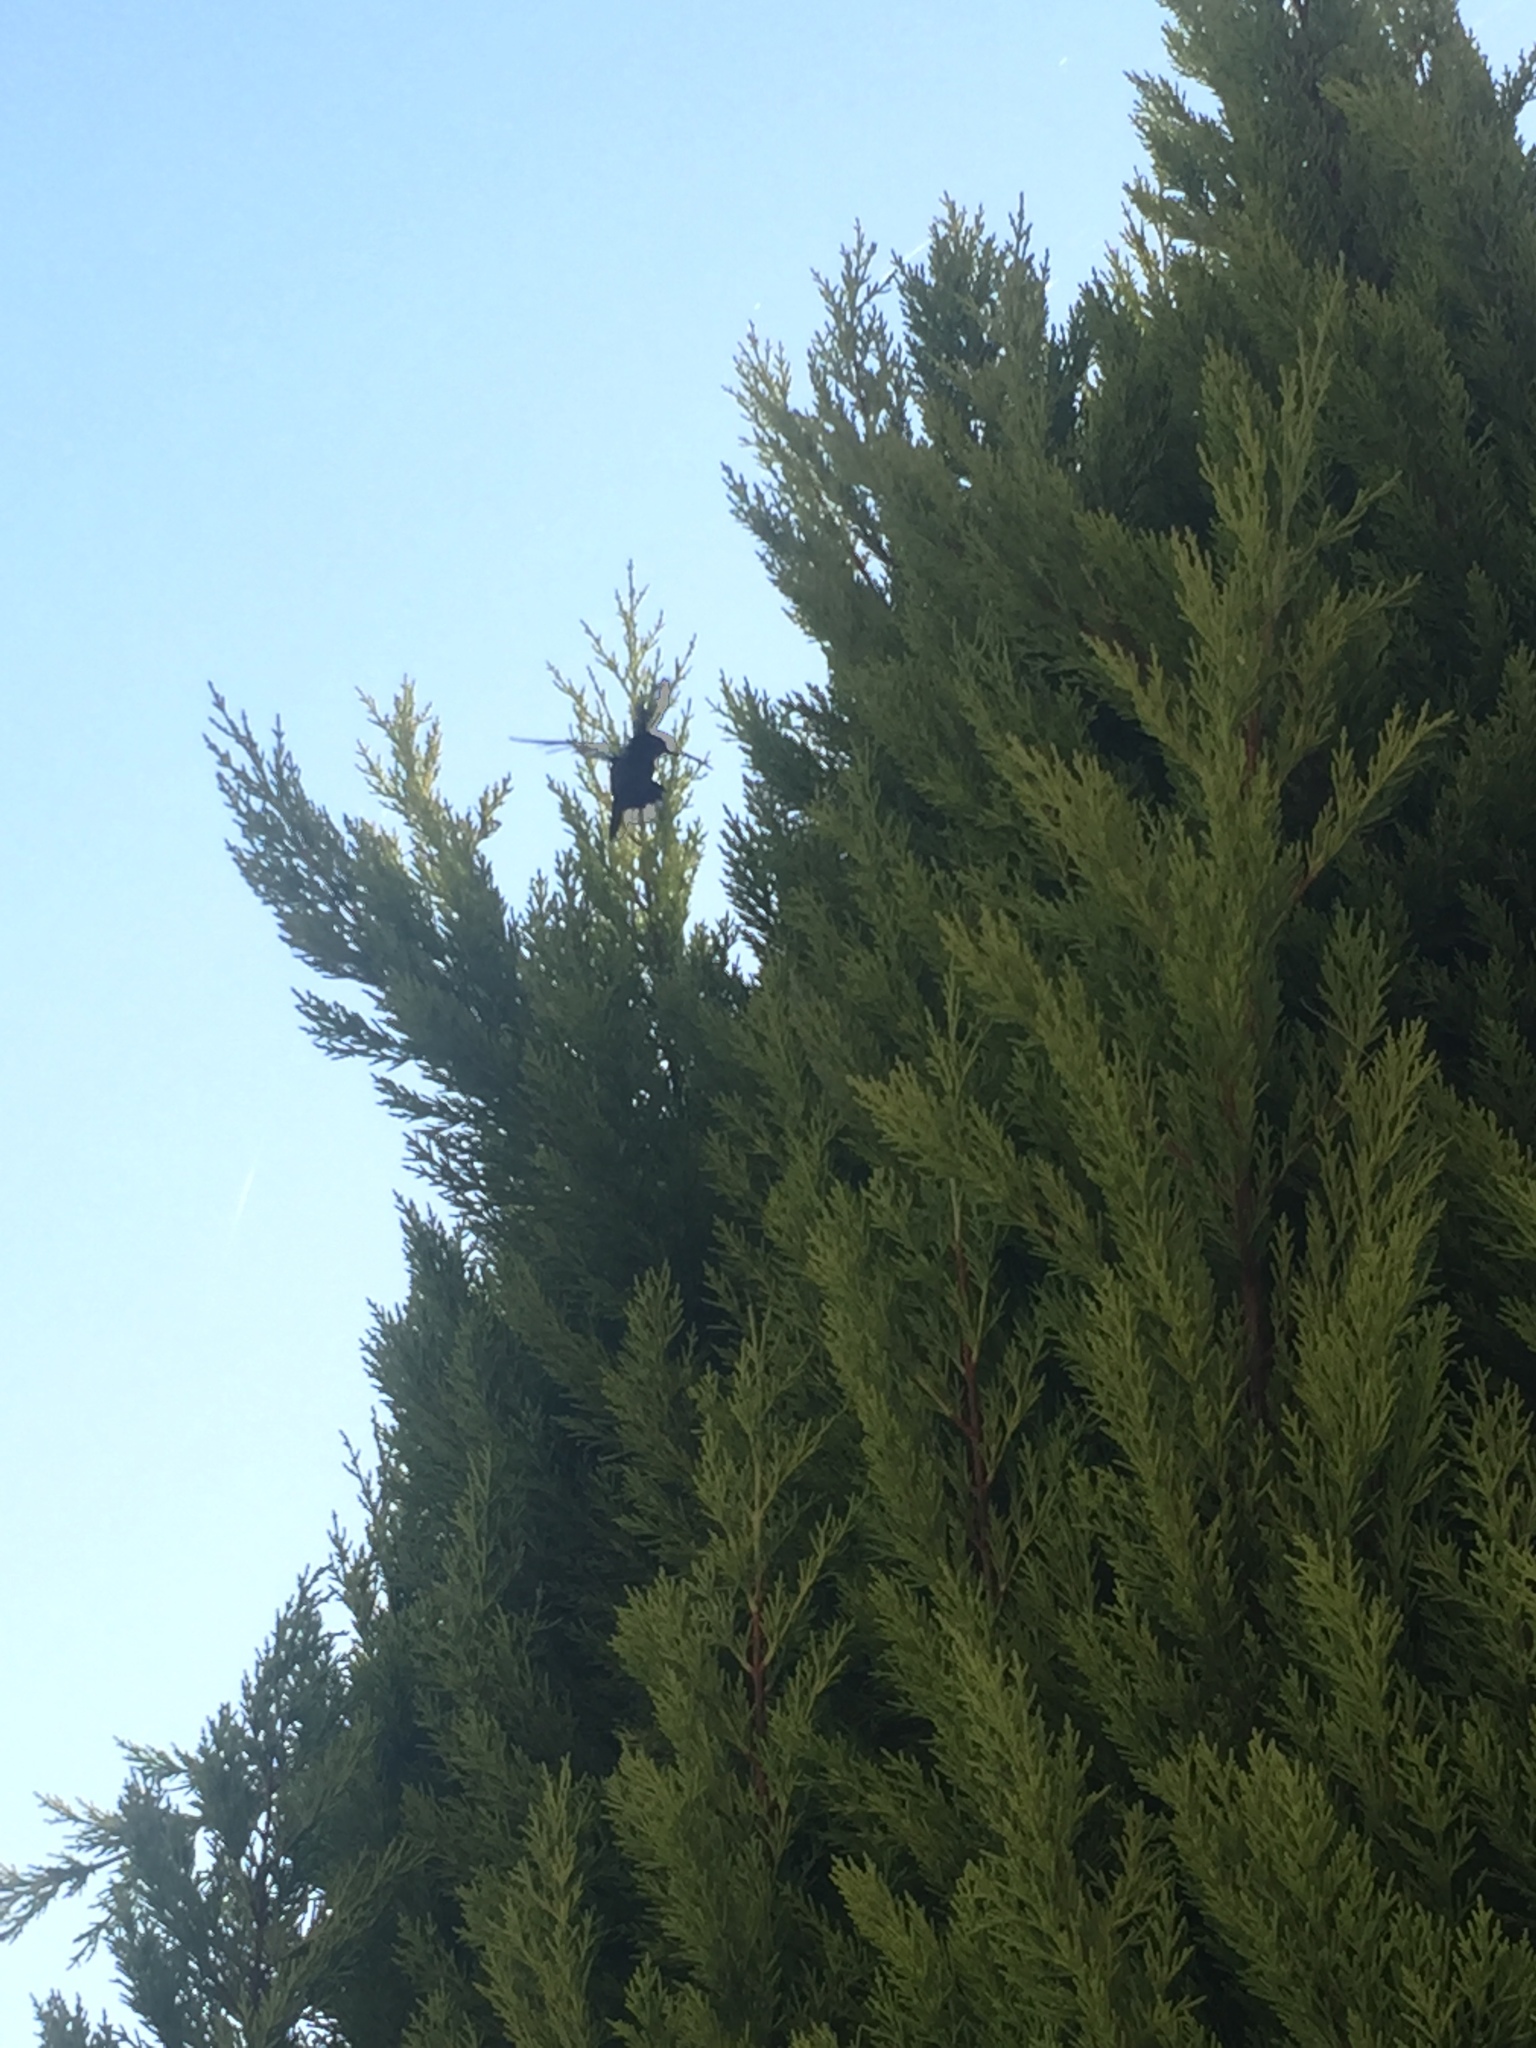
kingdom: Animalia
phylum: Chordata
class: Aves
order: Apodiformes
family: Trochilidae
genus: Cynanthus
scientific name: Cynanthus latirostris
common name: Broad-billed hummingbird
